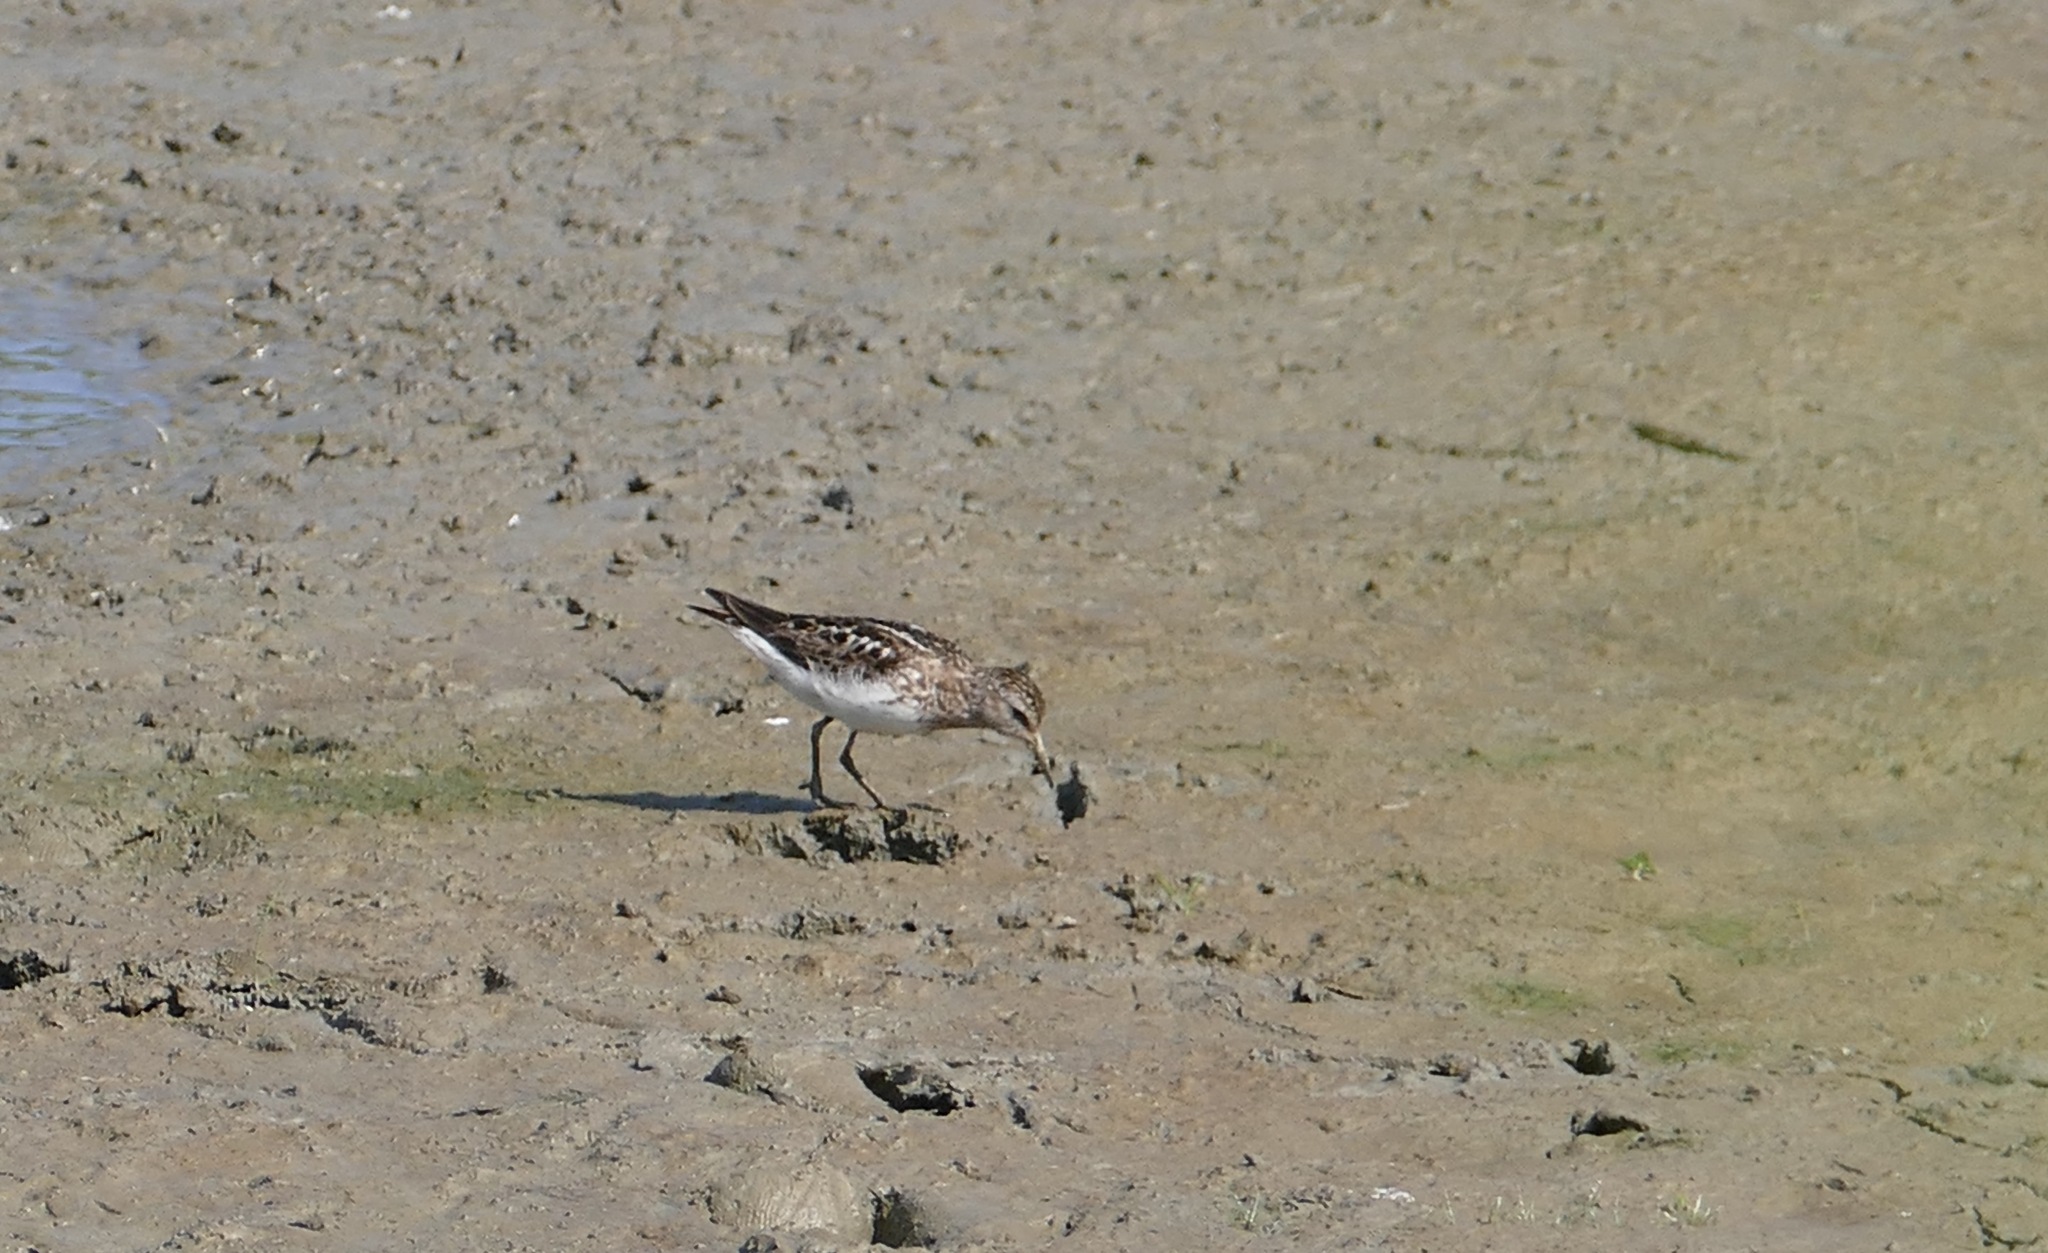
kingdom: Animalia
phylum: Chordata
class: Aves
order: Charadriiformes
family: Scolopacidae
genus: Calidris
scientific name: Calidris minutilla
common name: Least sandpiper
